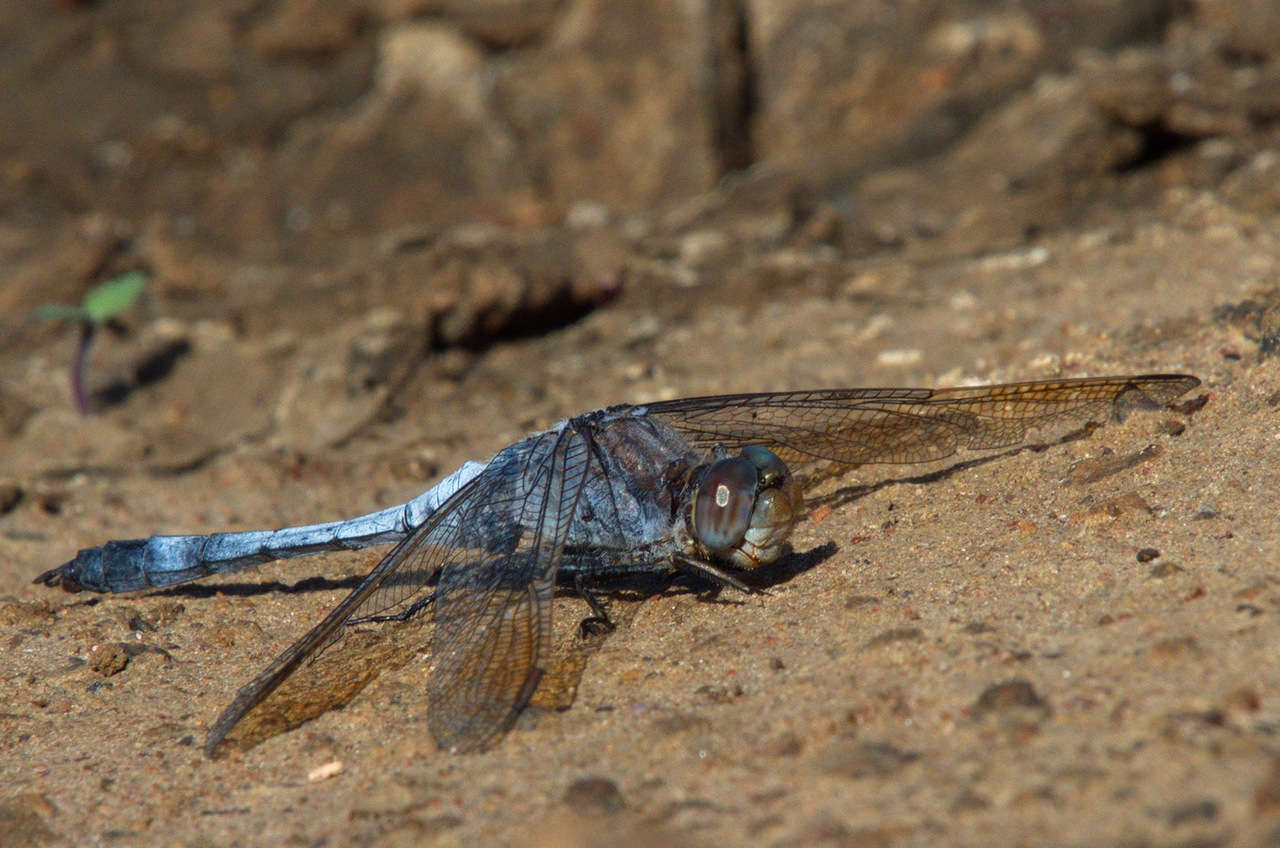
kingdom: Animalia
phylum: Arthropoda
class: Insecta
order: Odonata
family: Libellulidae
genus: Orthetrum
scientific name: Orthetrum caledonicum
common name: Blue skimmer
